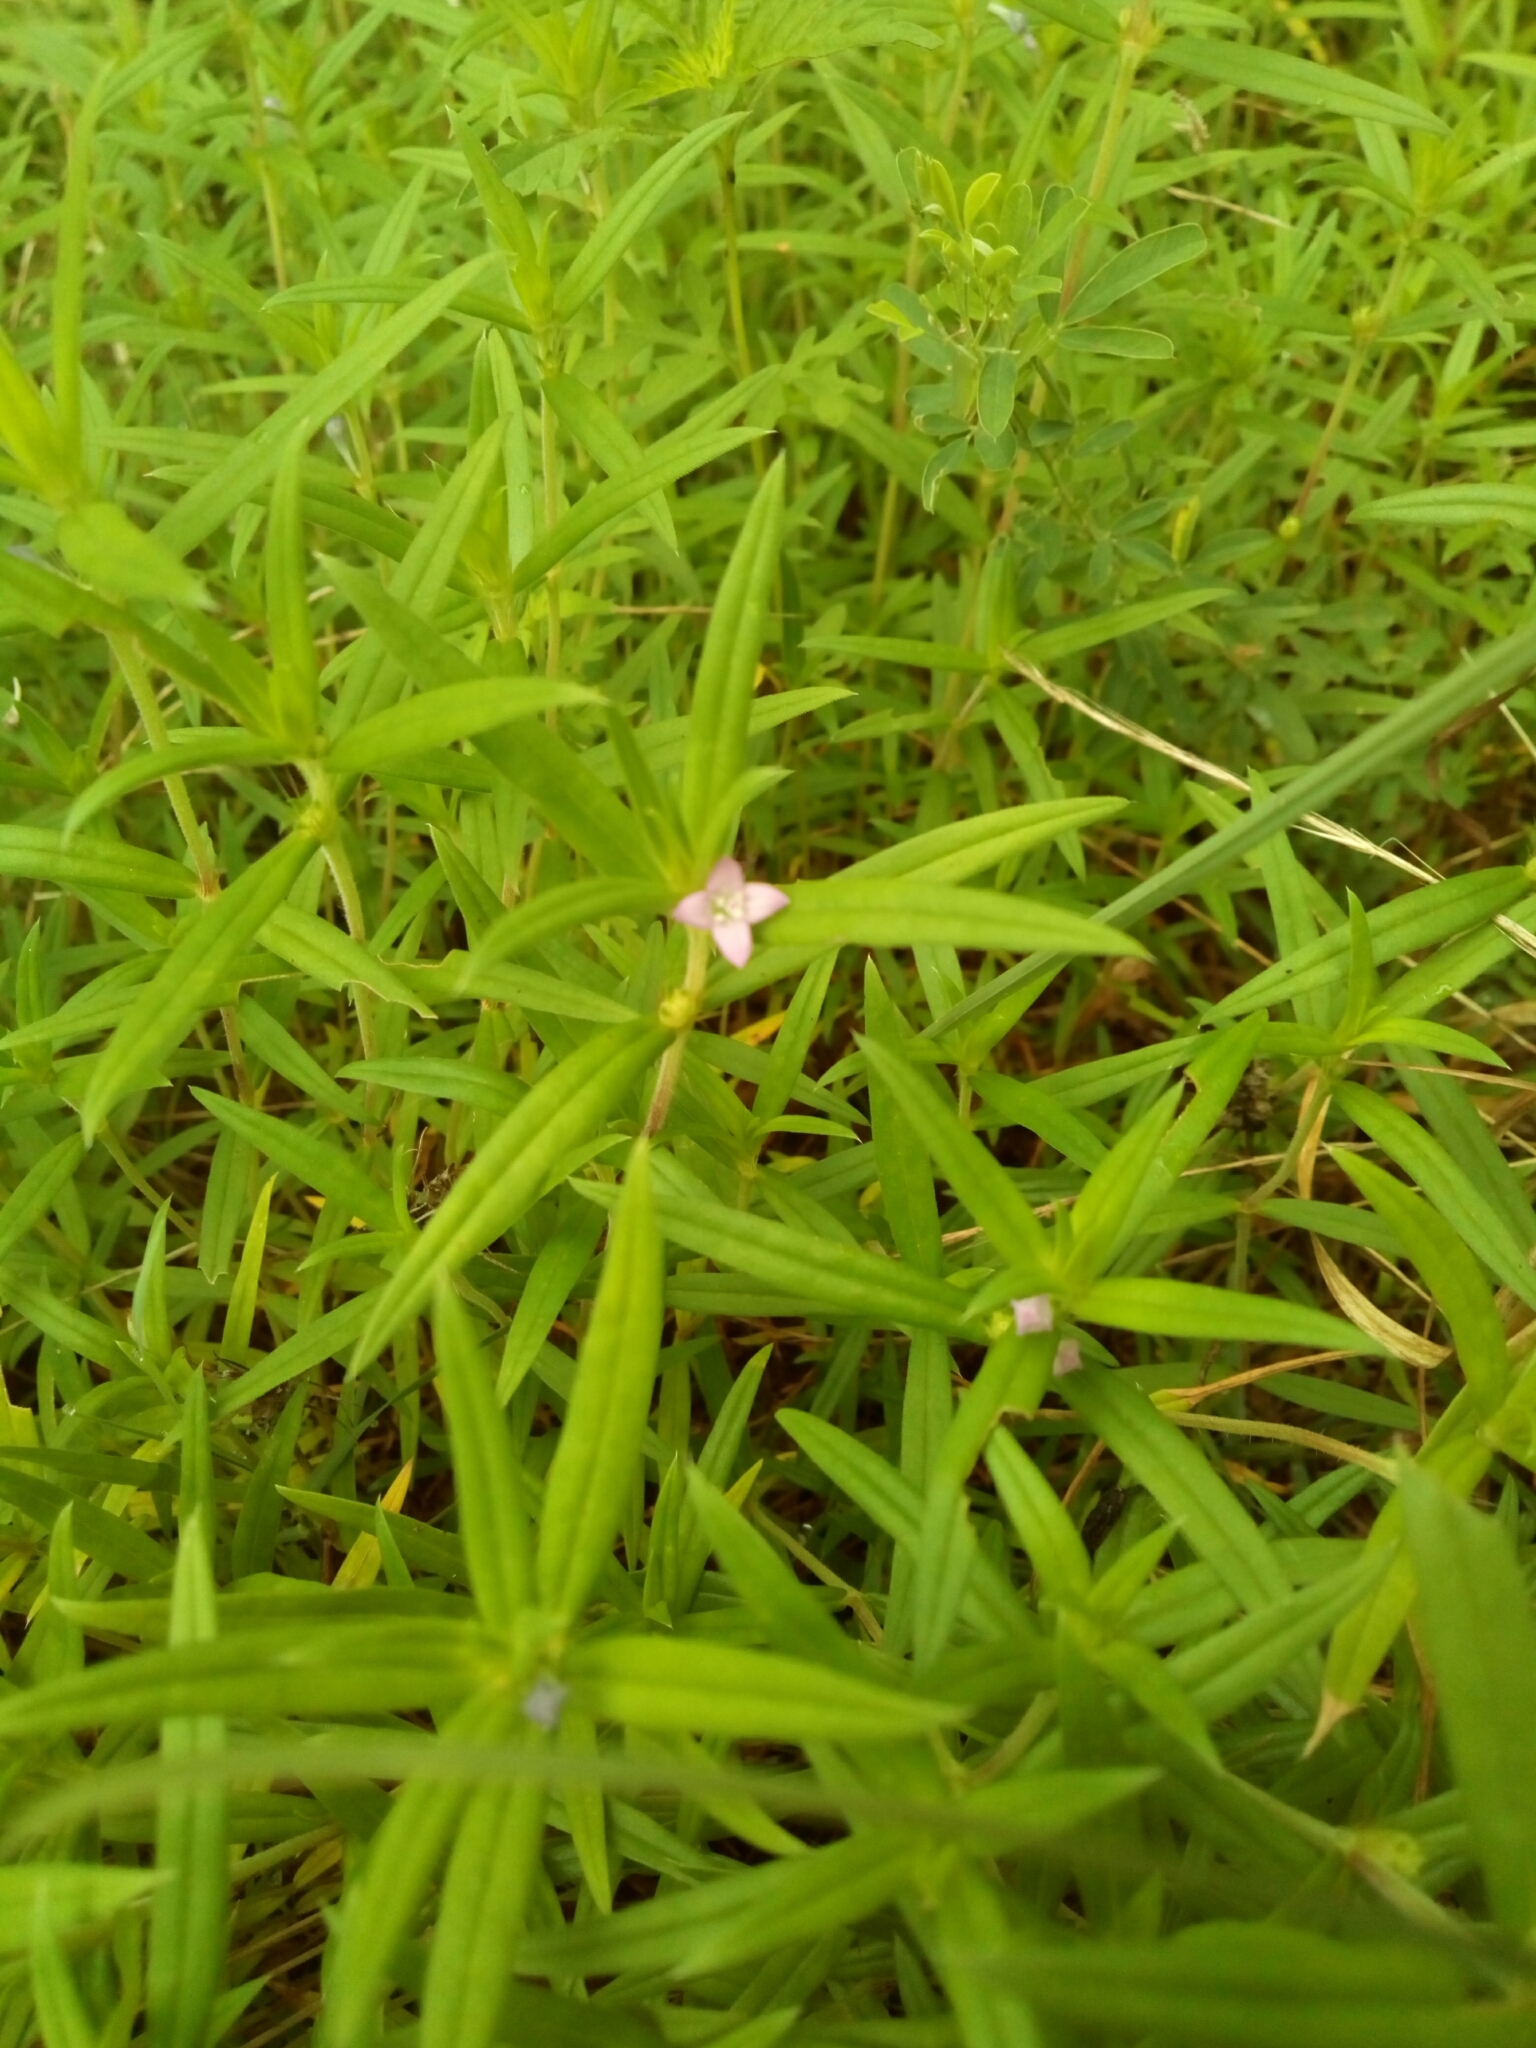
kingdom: Plantae
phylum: Tracheophyta
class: Magnoliopsida
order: Gentianales
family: Rubiaceae
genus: Hexasepalum
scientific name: Hexasepalum teres
